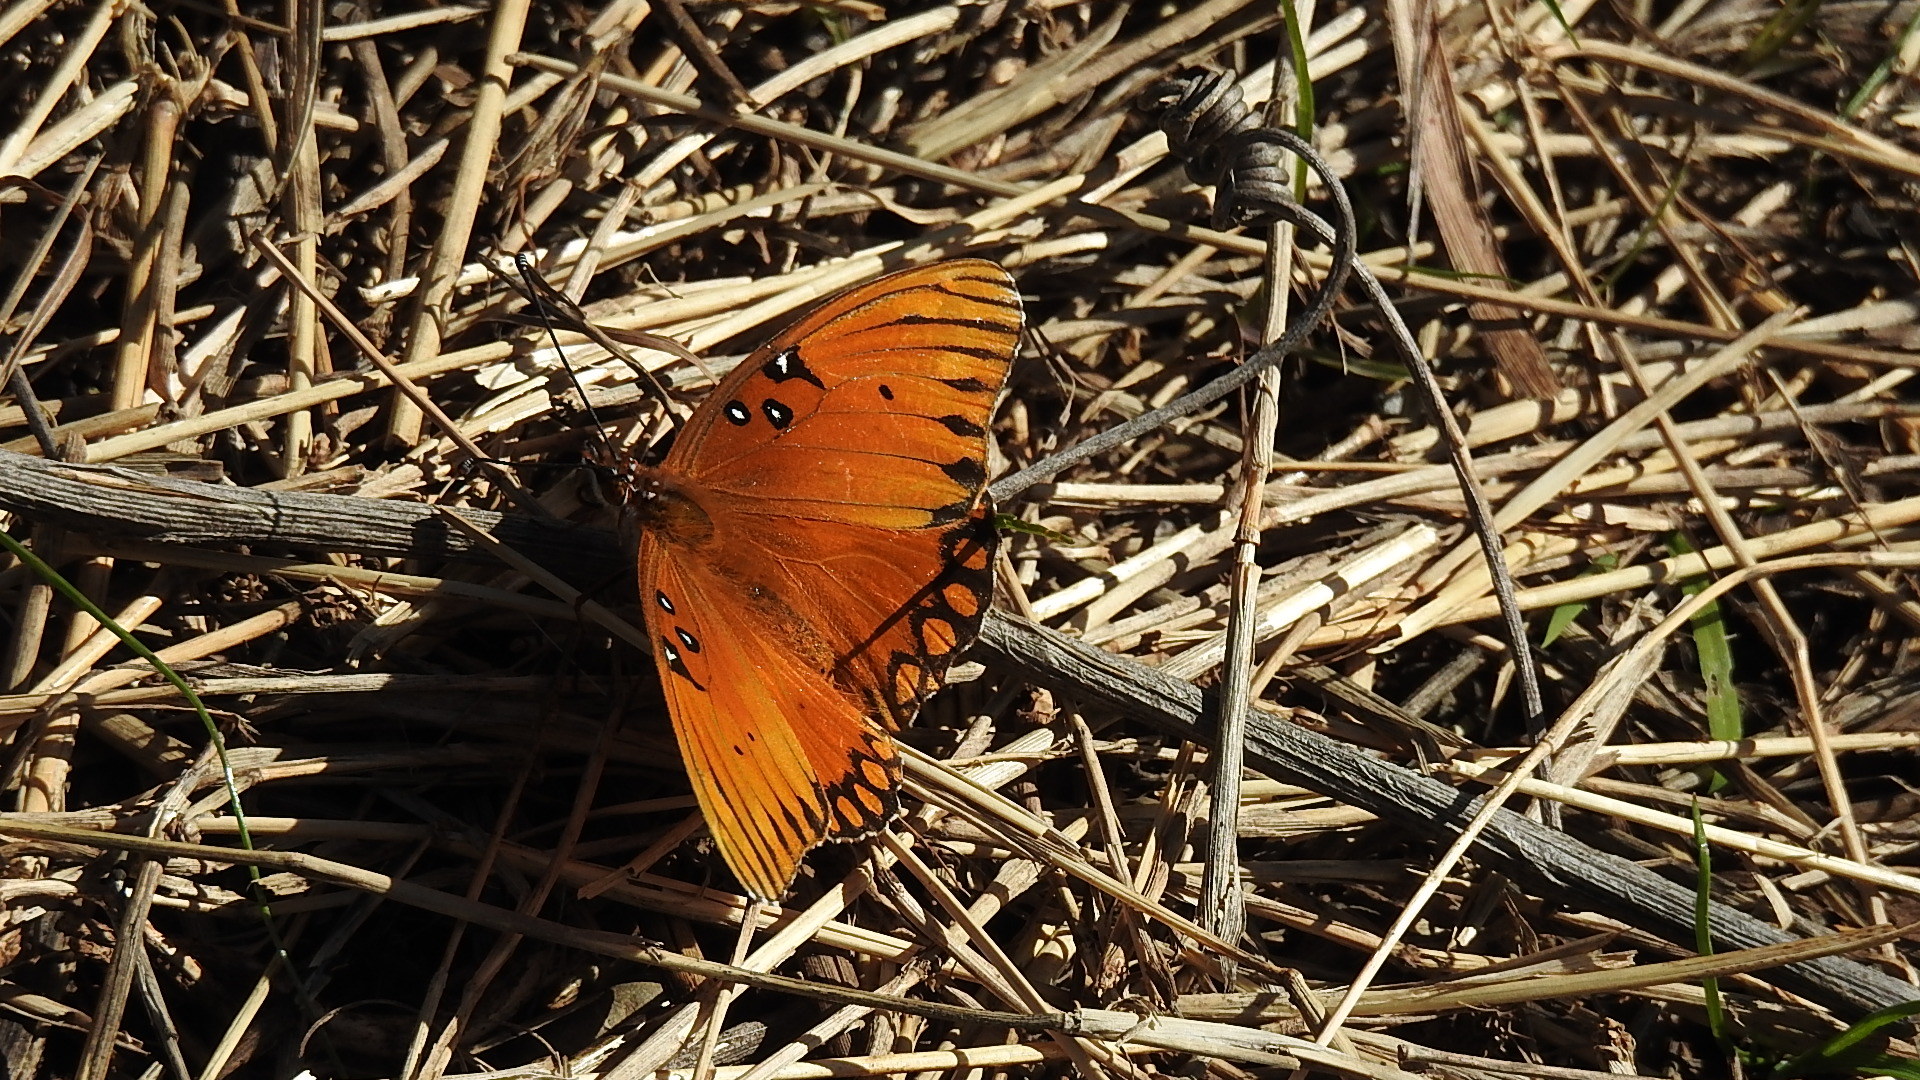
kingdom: Animalia
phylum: Arthropoda
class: Insecta
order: Lepidoptera
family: Nymphalidae
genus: Dione
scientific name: Dione vanillae
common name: Gulf fritillary
